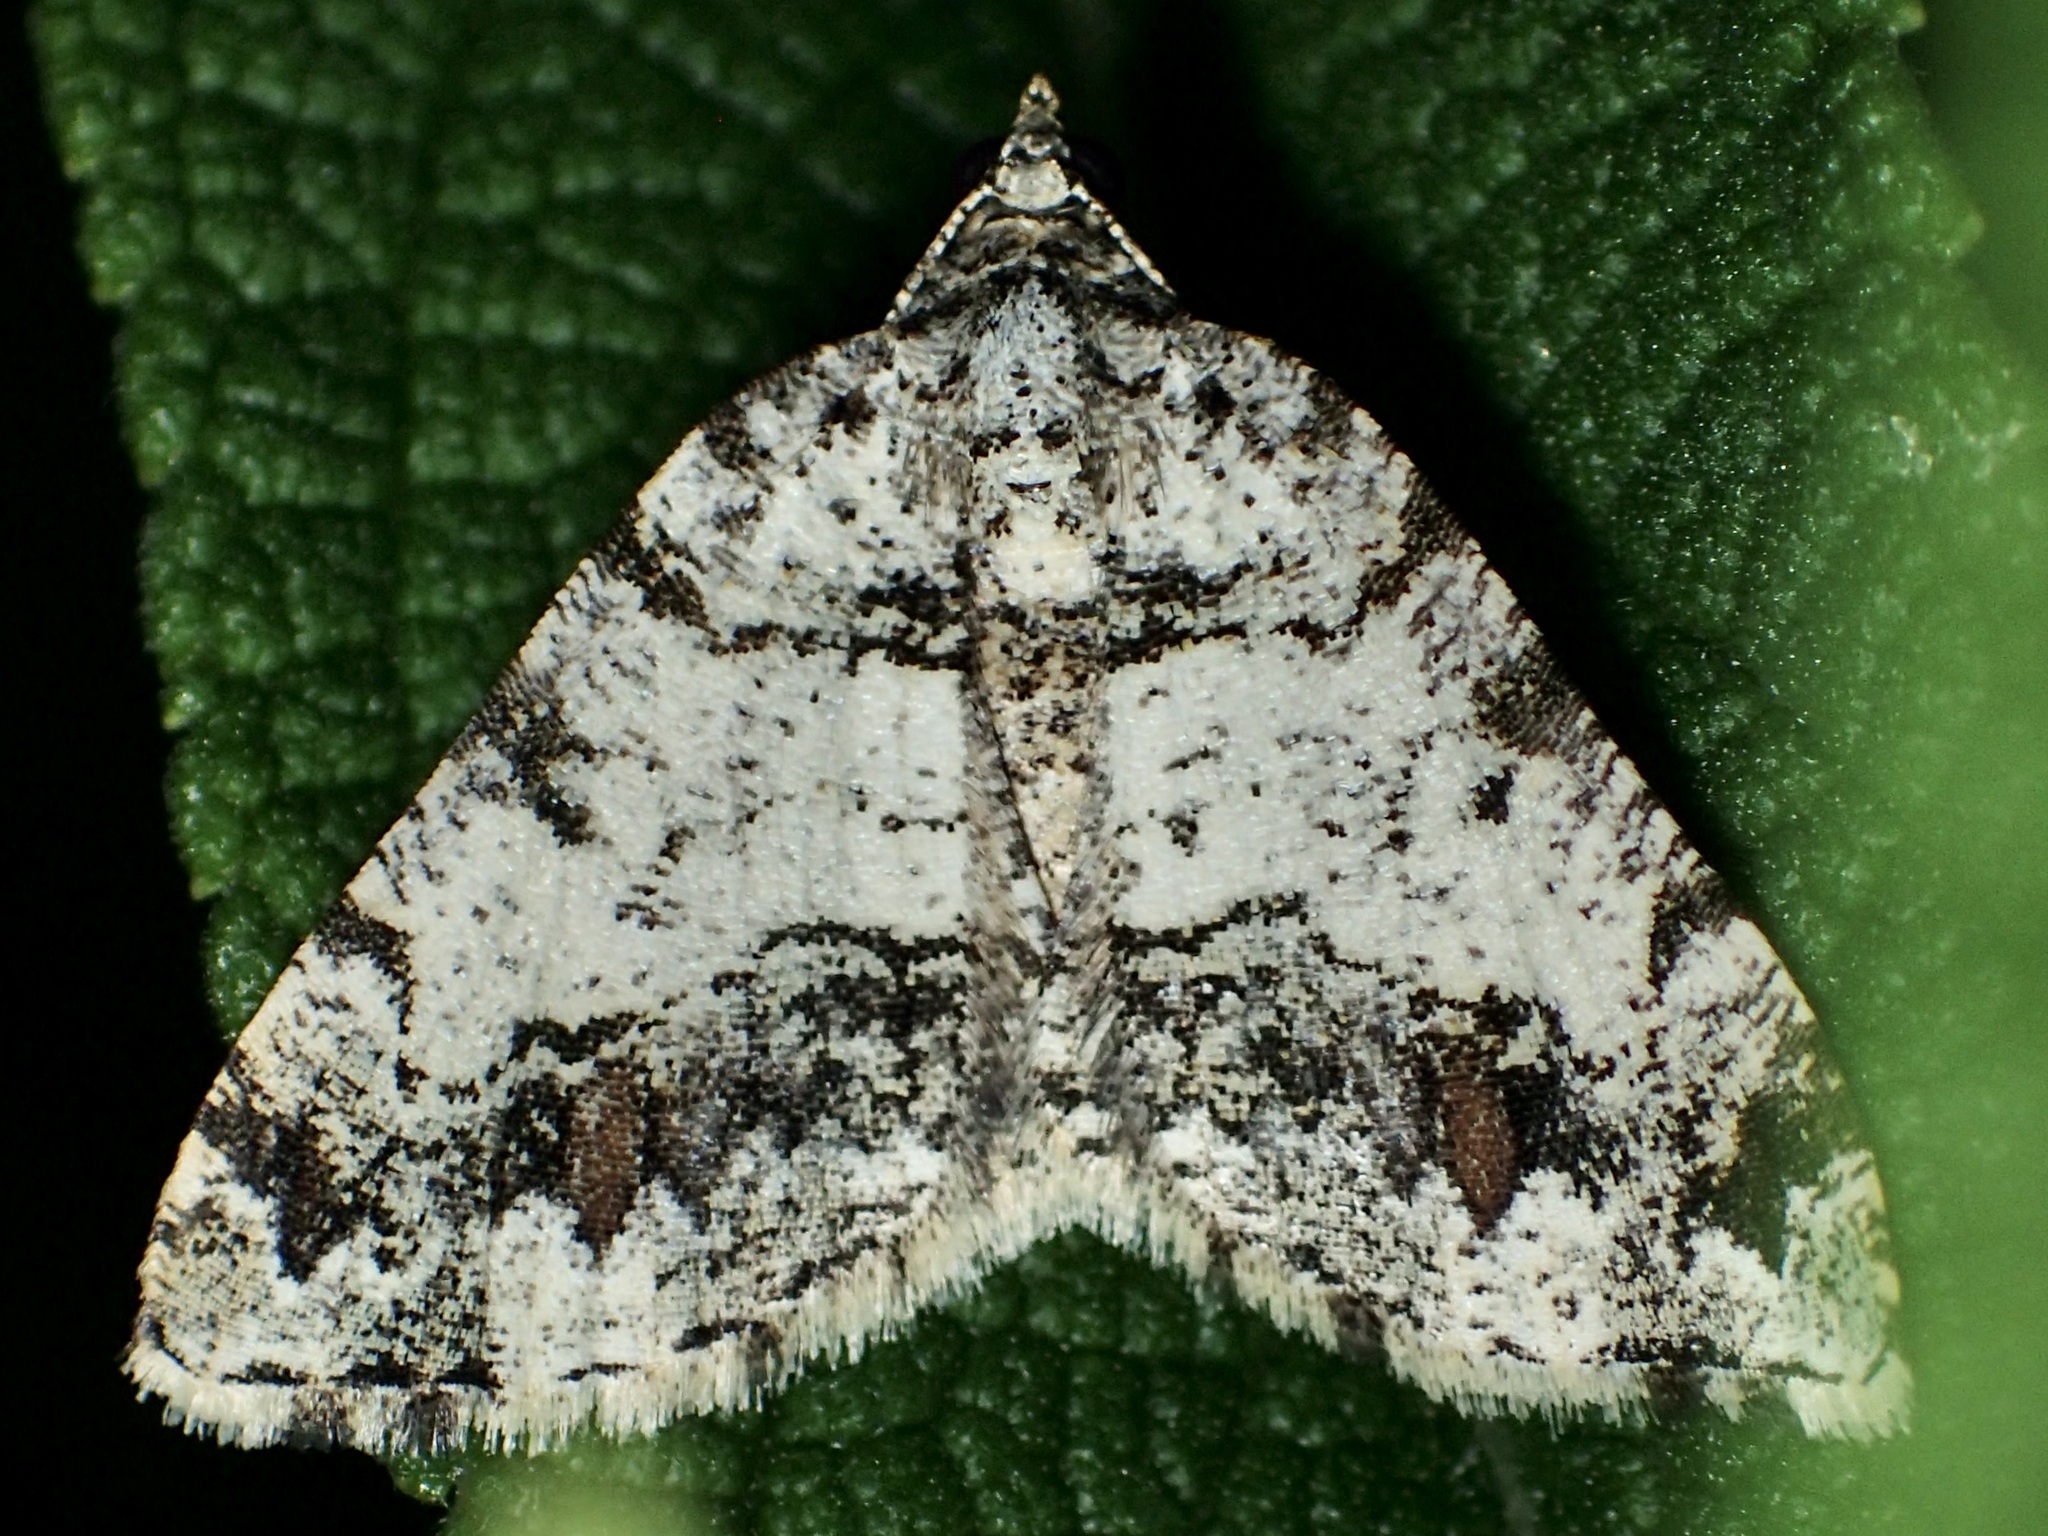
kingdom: Animalia
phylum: Arthropoda
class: Insecta
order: Lepidoptera
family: Geometridae
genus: Macaria
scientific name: Macaria deceptrix
